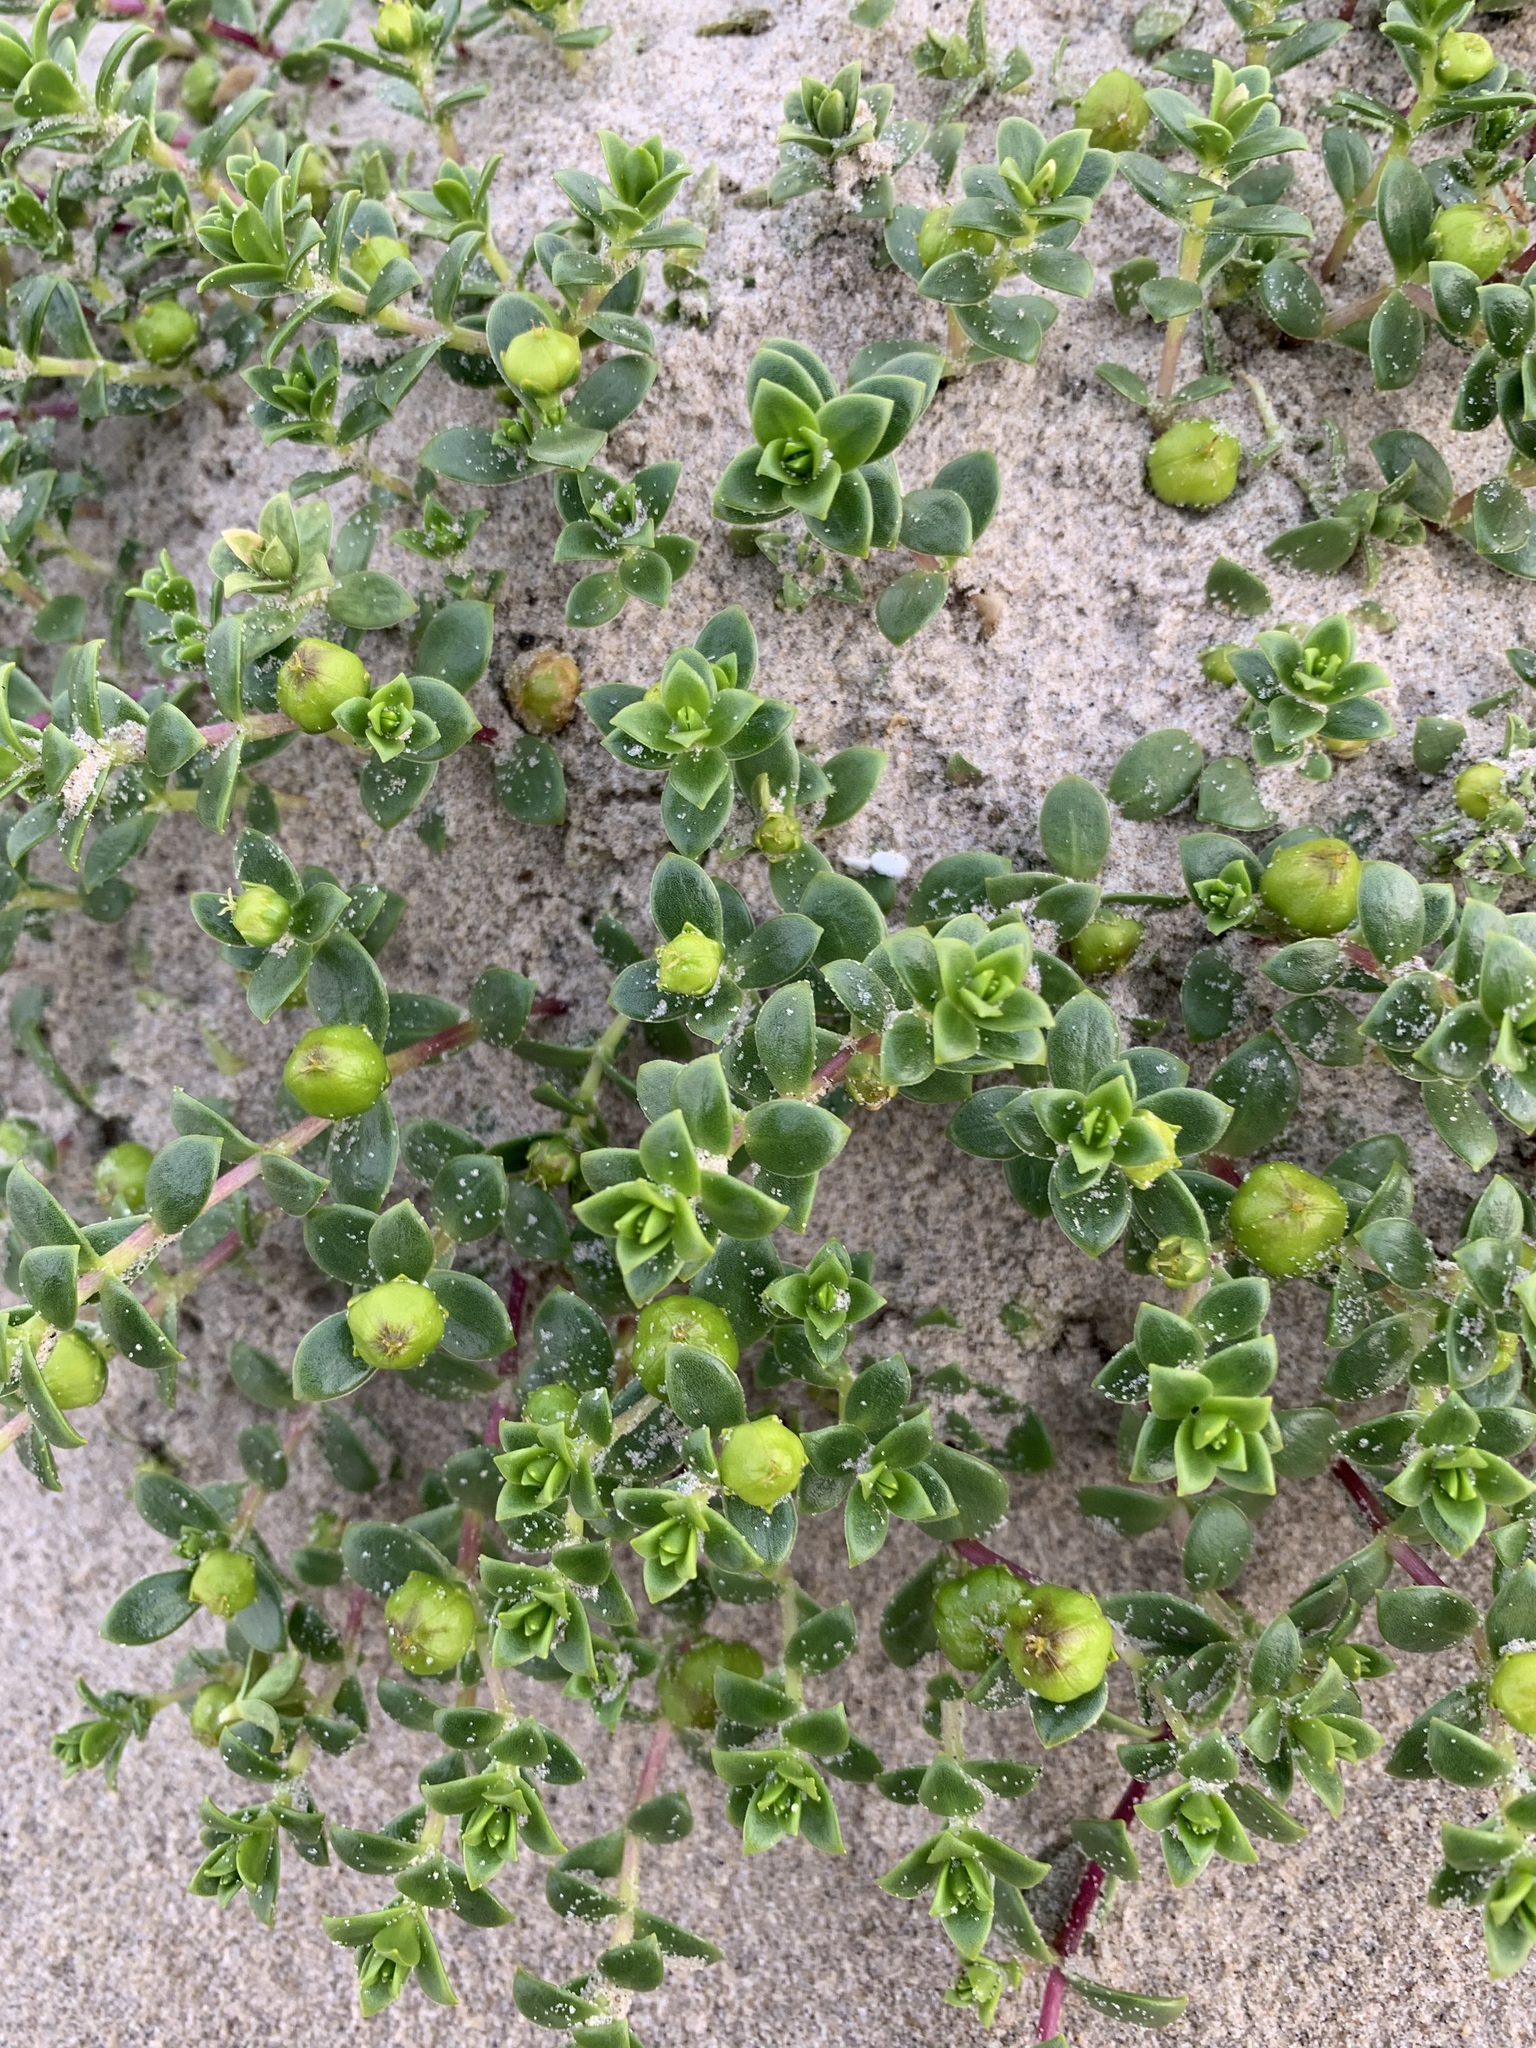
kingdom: Plantae
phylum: Tracheophyta
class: Magnoliopsida
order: Caryophyllales
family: Caryophyllaceae
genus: Honckenya
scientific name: Honckenya peploides
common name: Sea sandwort
